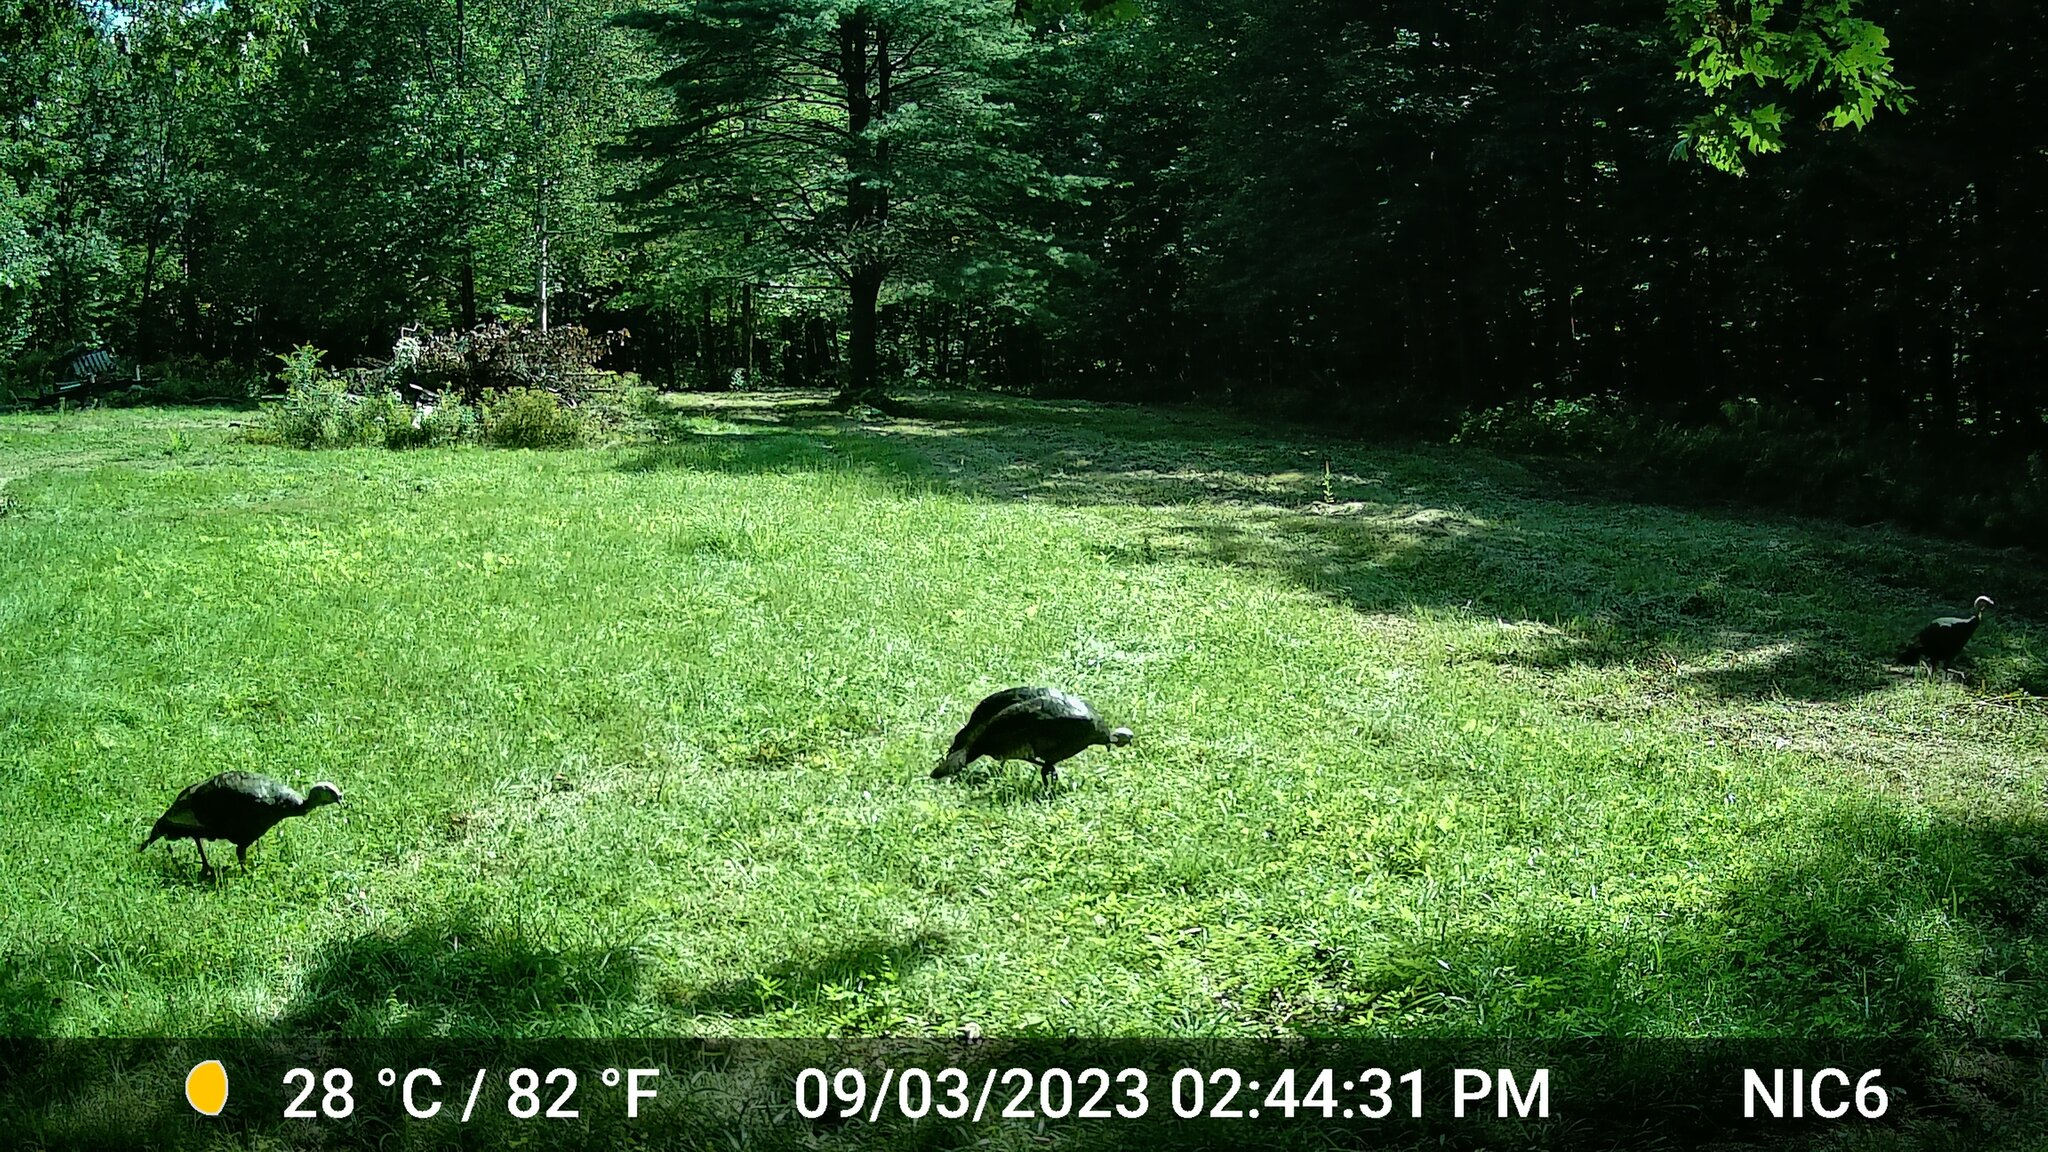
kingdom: Animalia
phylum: Chordata
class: Aves
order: Galliformes
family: Phasianidae
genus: Meleagris
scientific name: Meleagris gallopavo
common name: Wild turkey
